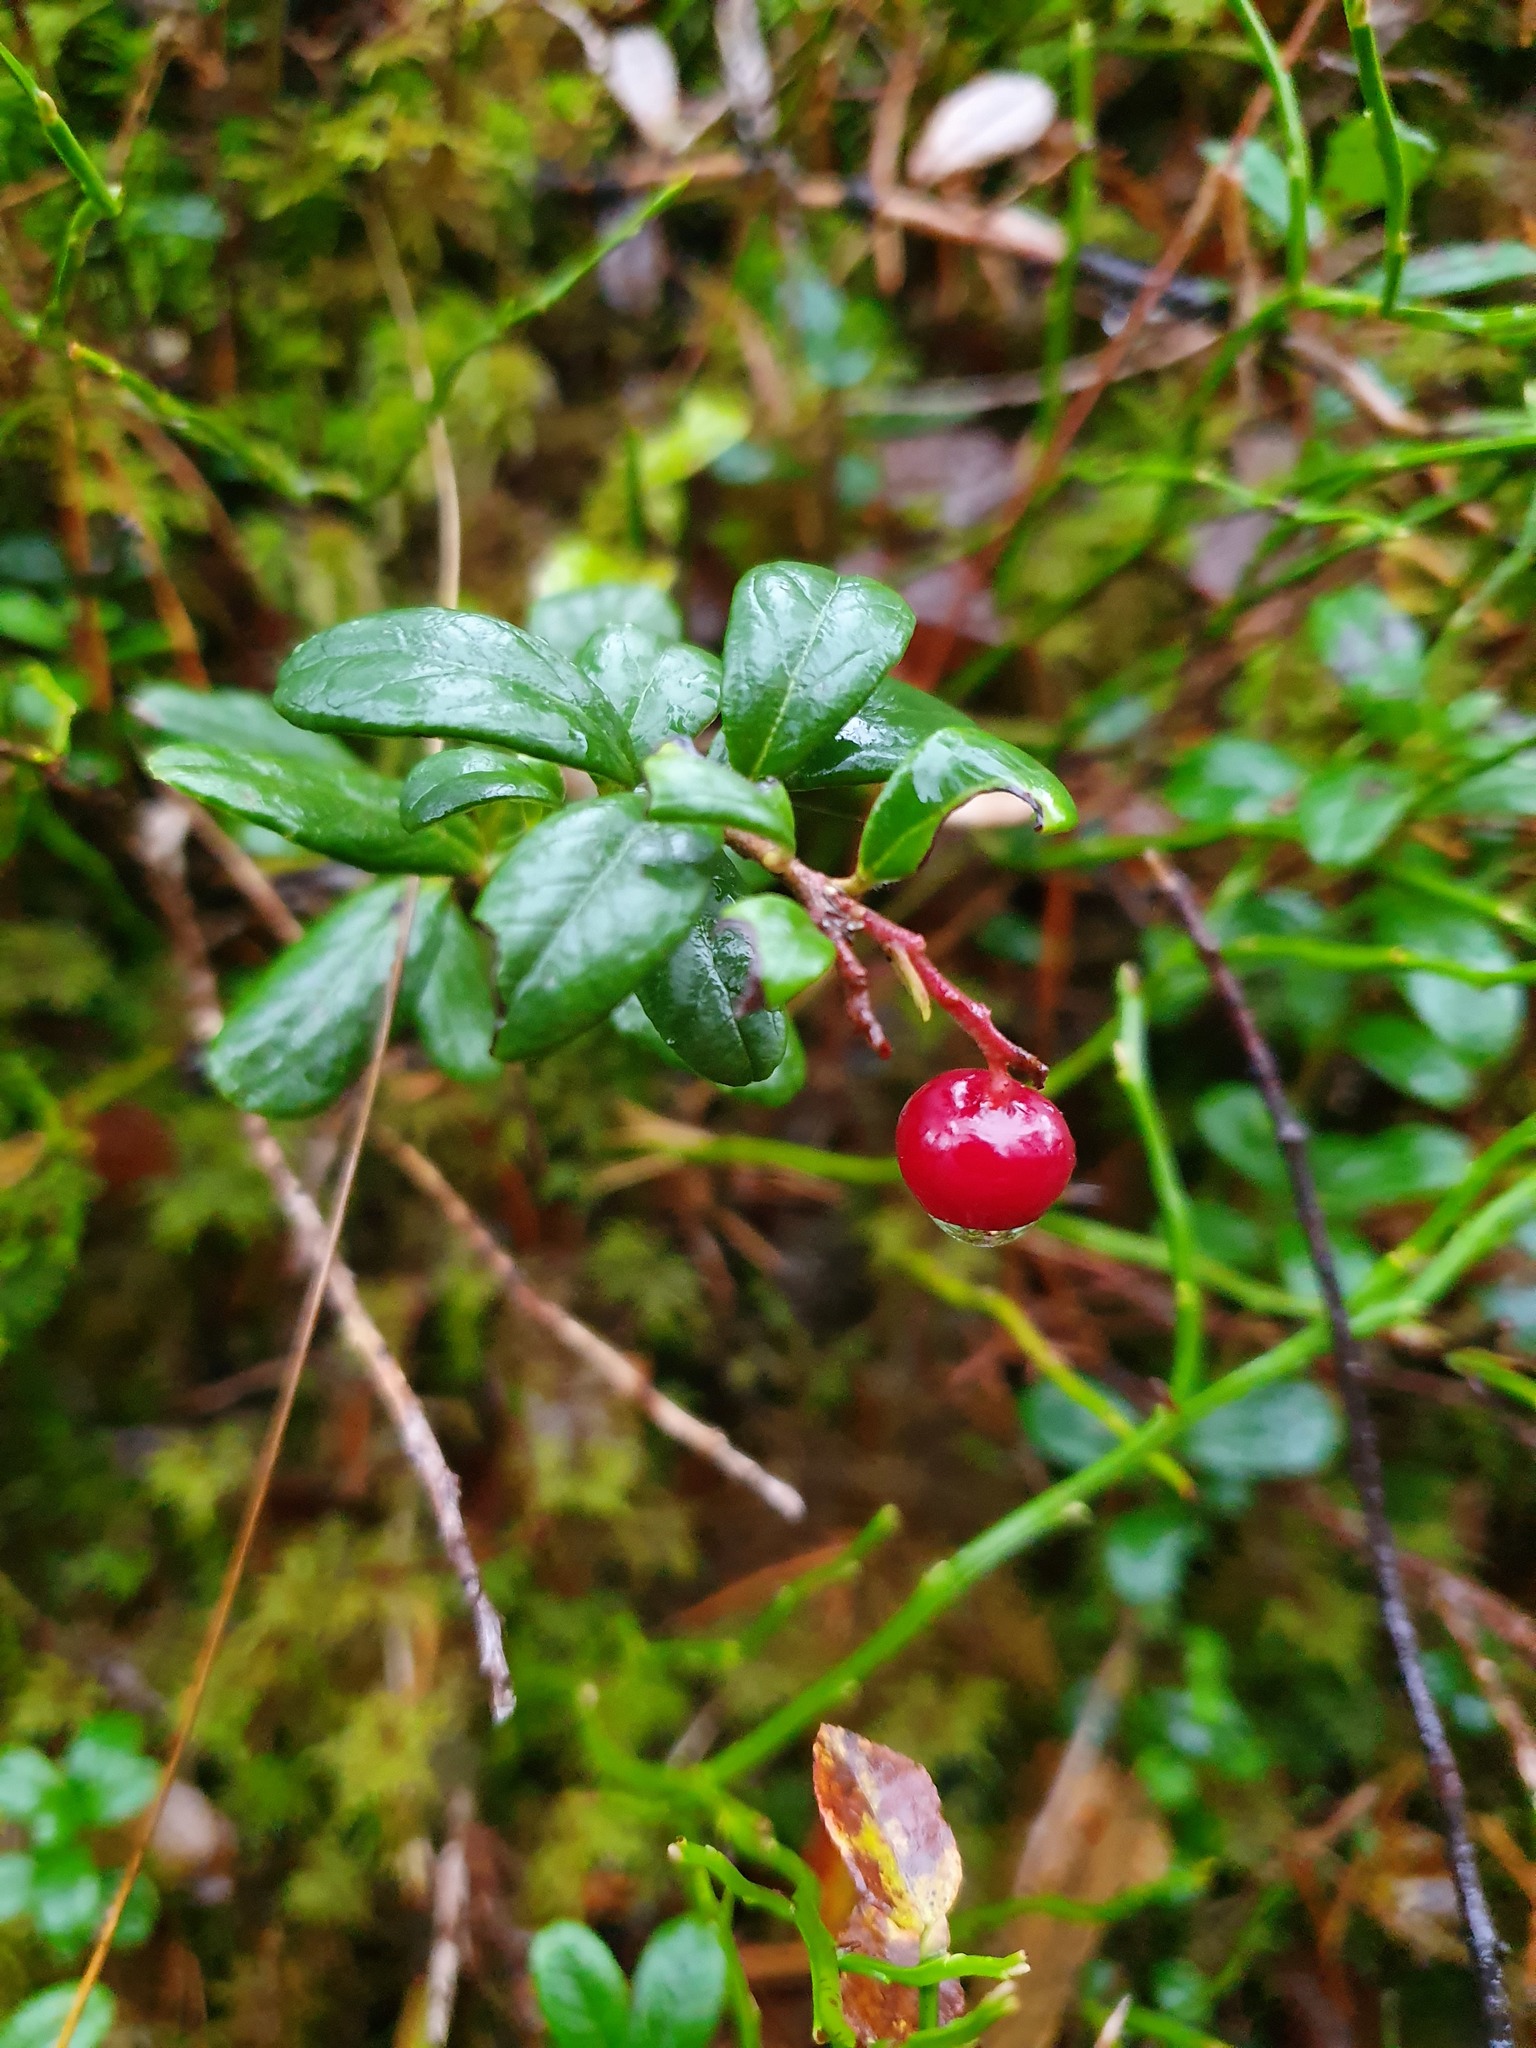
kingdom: Plantae
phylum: Tracheophyta
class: Magnoliopsida
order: Ericales
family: Ericaceae
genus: Vaccinium
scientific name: Vaccinium vitis-idaea
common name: Cowberry
